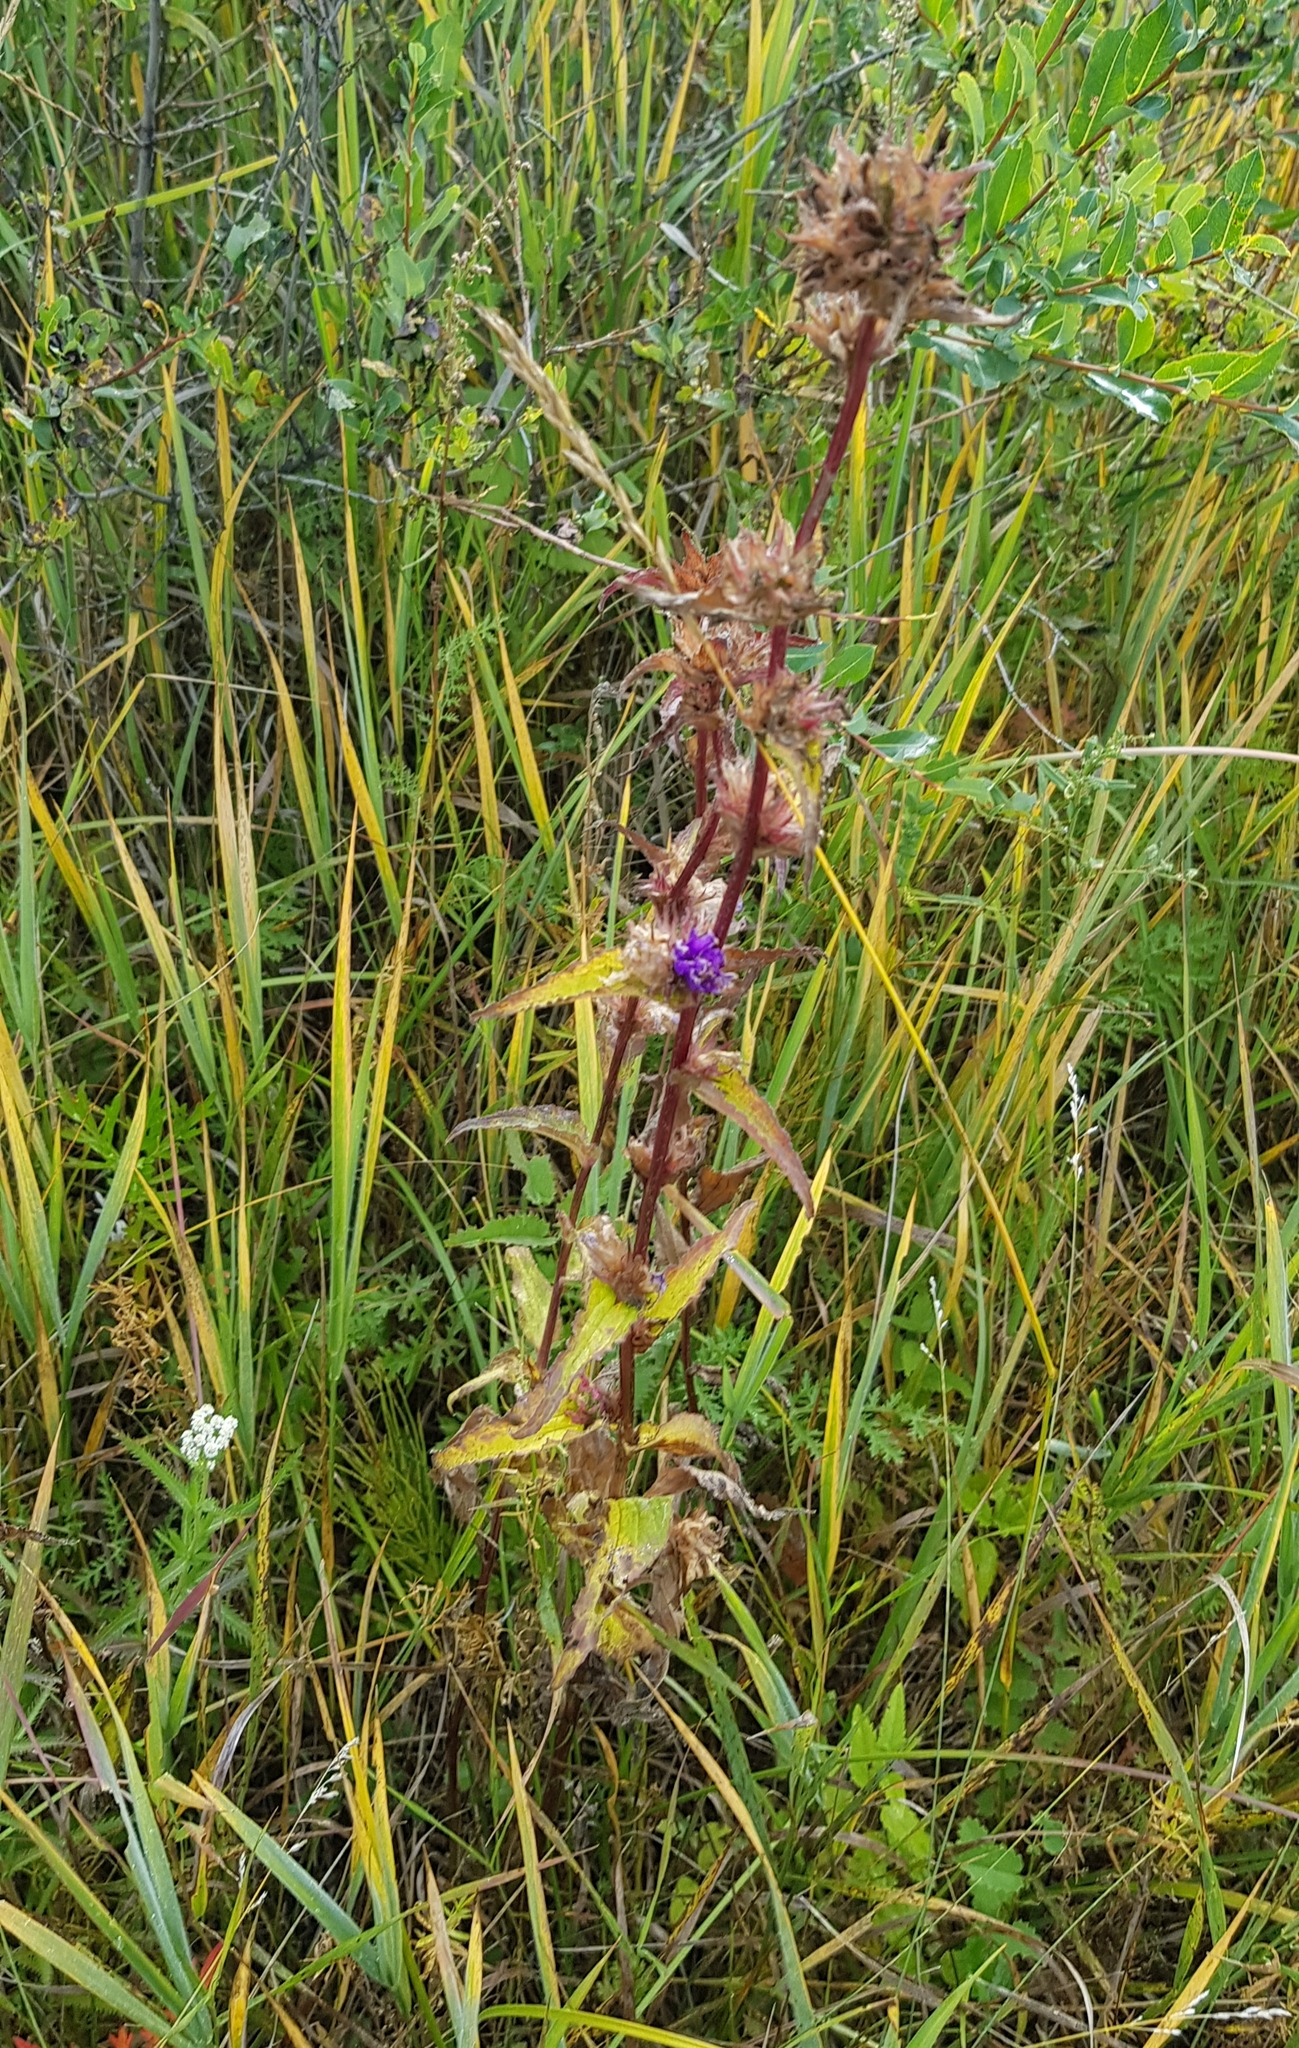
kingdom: Plantae
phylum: Tracheophyta
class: Magnoliopsida
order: Lamiales
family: Lamiaceae
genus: Phlomoides
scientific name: Phlomoides tuberosa
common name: Tuberous jerusalem sage
